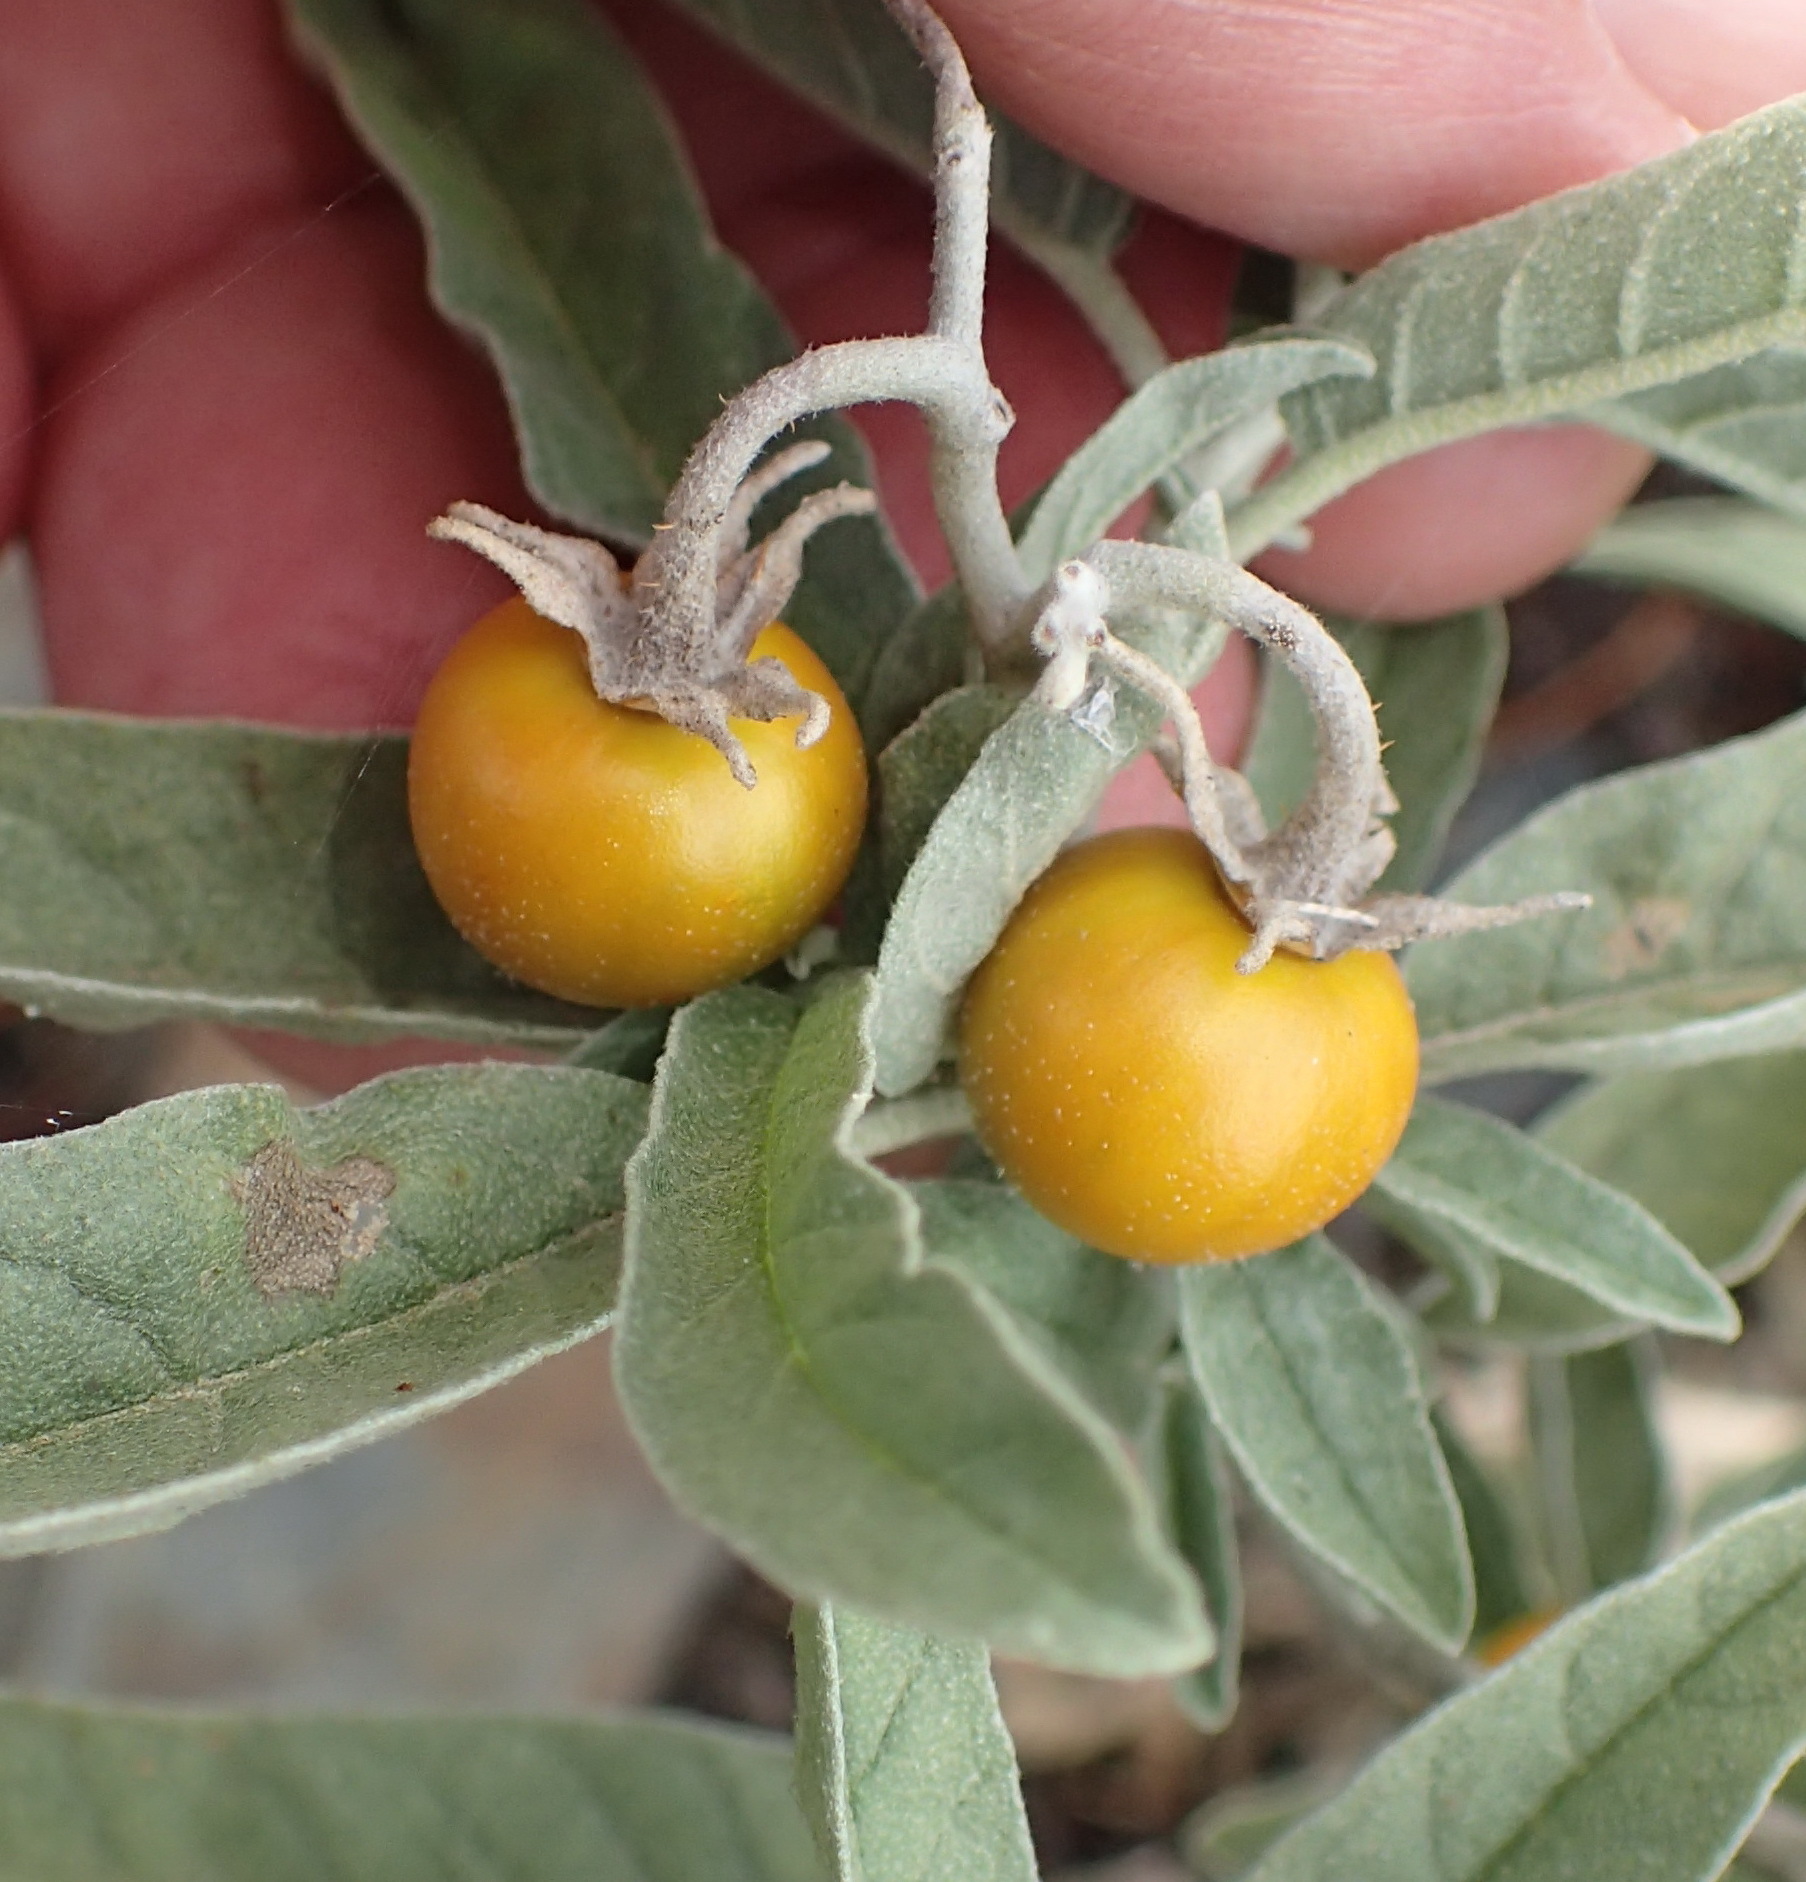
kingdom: Plantae
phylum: Tracheophyta
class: Magnoliopsida
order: Solanales
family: Solanaceae
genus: Solanum
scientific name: Solanum elaeagnifolium
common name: Silverleaf nightshade
